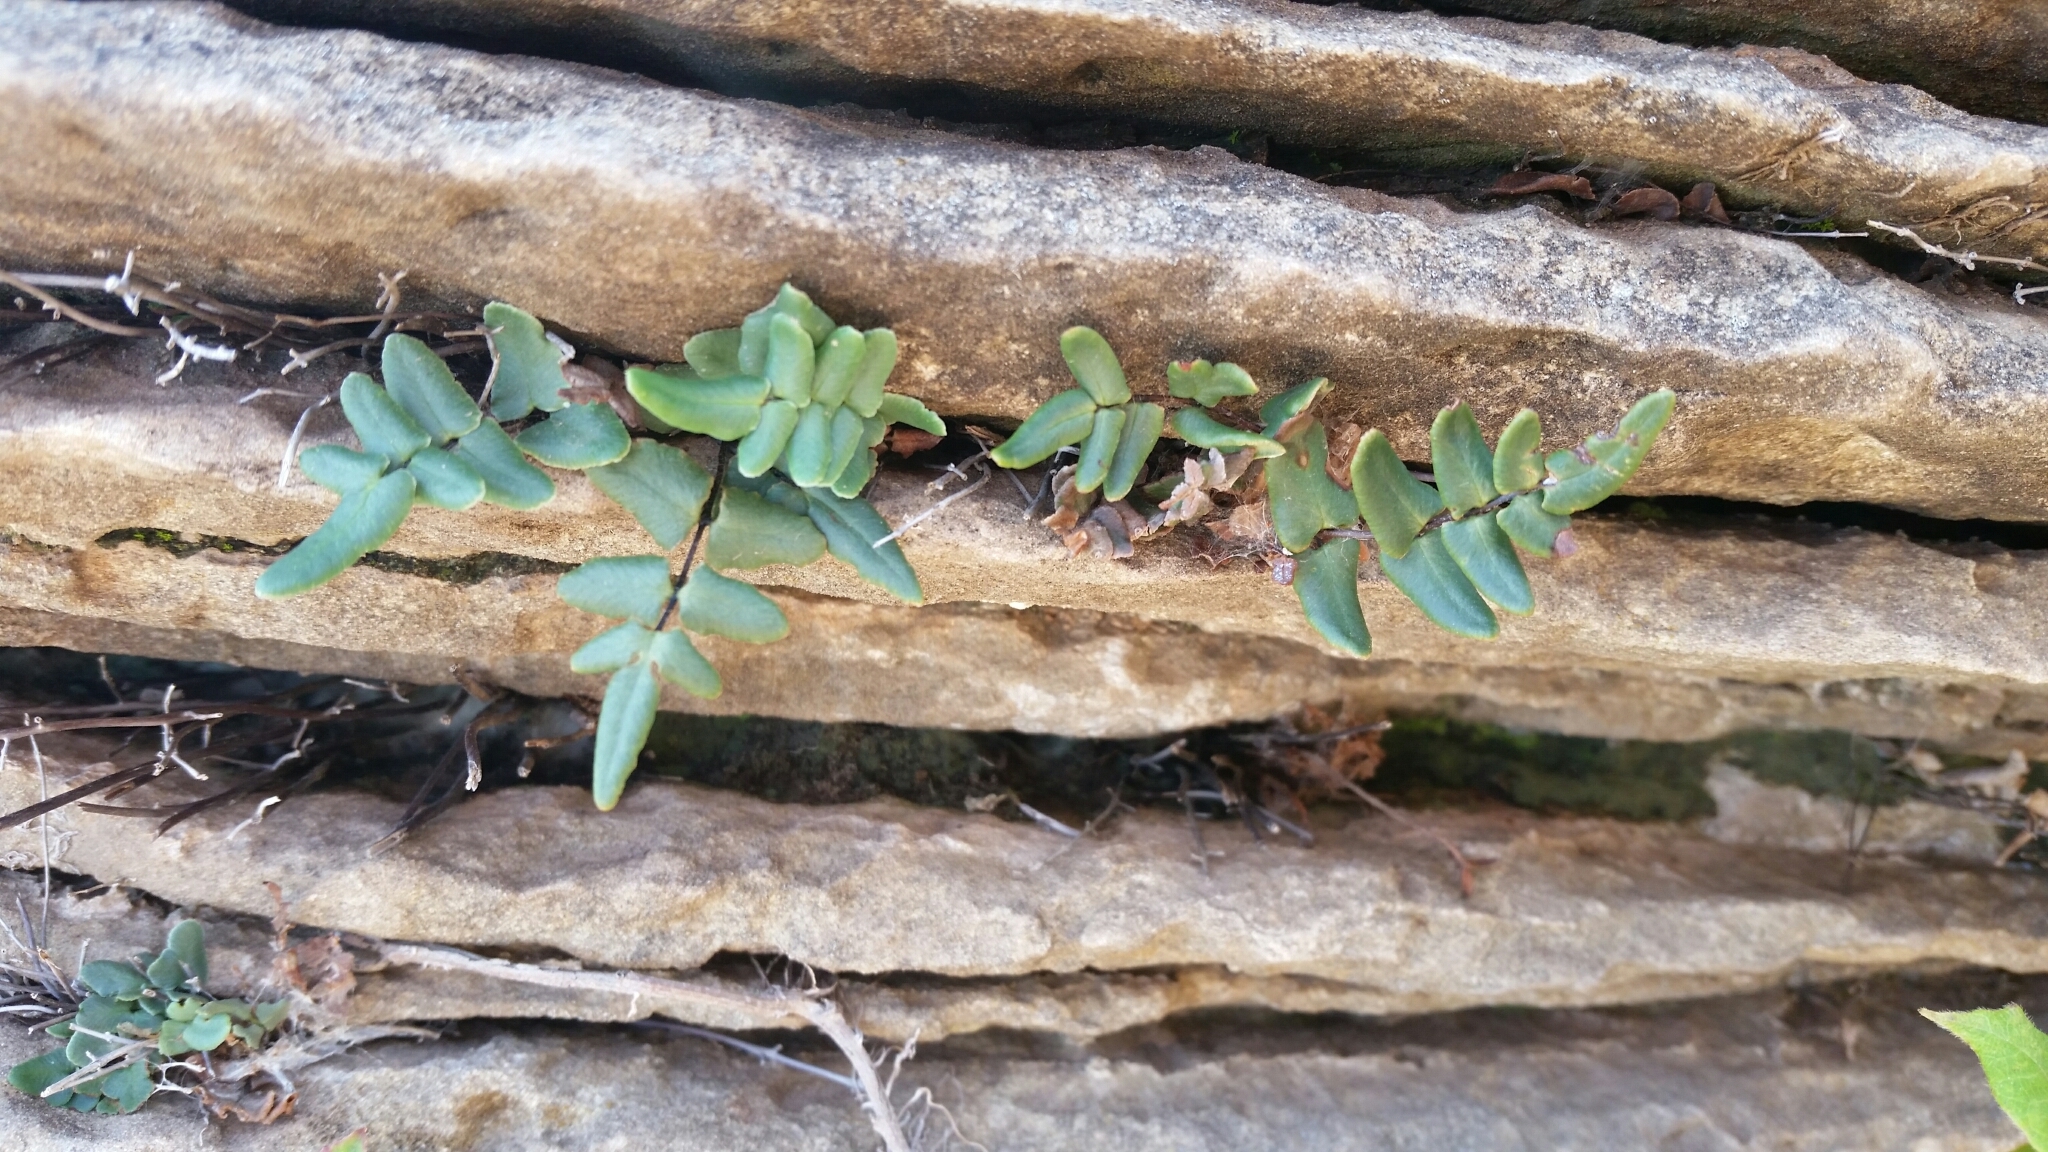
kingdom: Plantae
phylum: Tracheophyta
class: Polypodiopsida
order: Polypodiales
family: Pteridaceae
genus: Pellaea
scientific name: Pellaea atropurpurea
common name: Hairy cliffbrake
